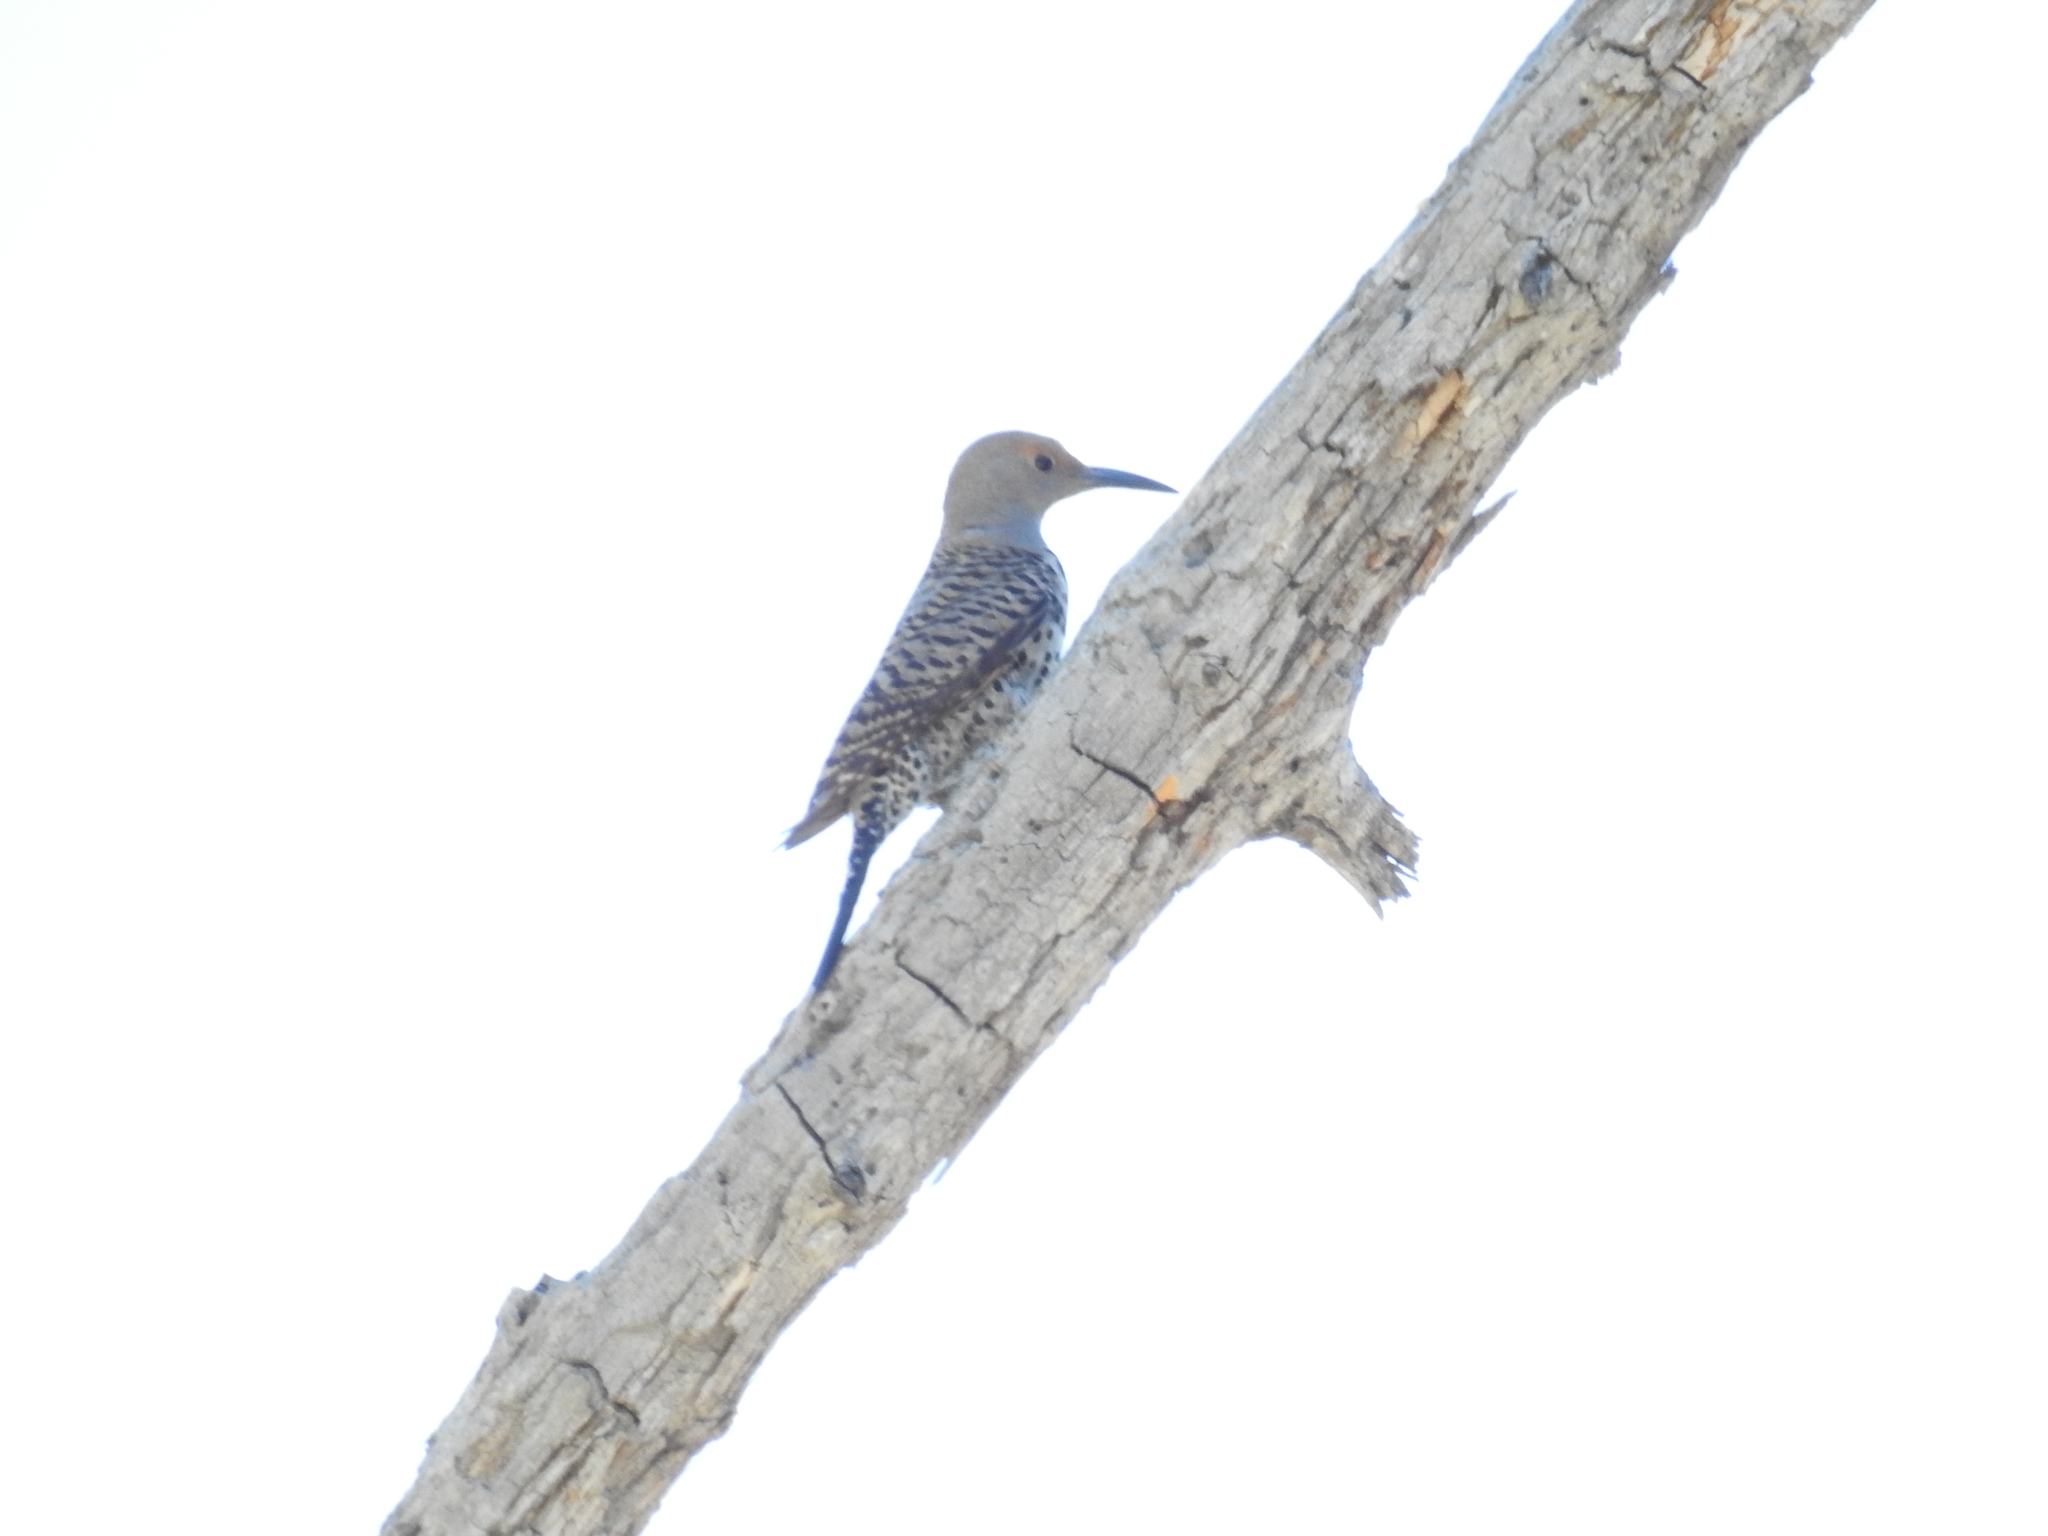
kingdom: Animalia
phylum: Chordata
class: Aves
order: Piciformes
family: Picidae
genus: Colaptes
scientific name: Colaptes auratus
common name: Northern flicker
